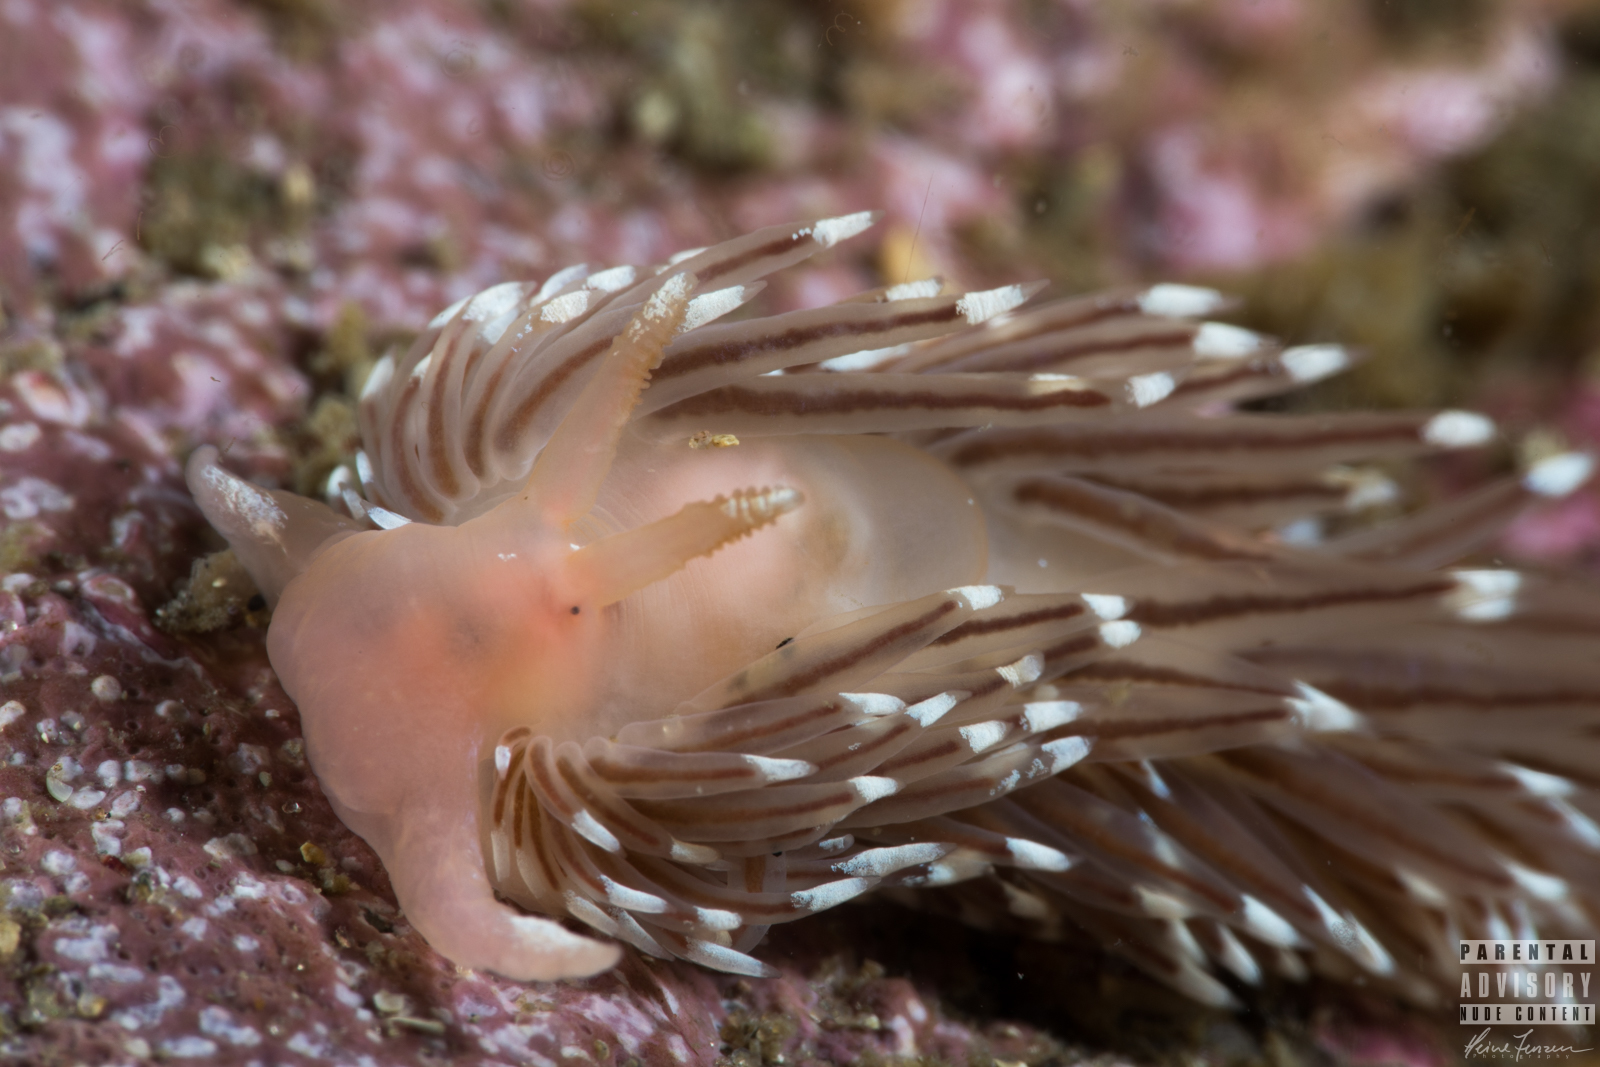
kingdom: Animalia
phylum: Mollusca
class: Gastropoda
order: Nudibranchia
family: Facelinidae
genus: Facelina
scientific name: Facelina bostoniensis
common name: Boston facelina
